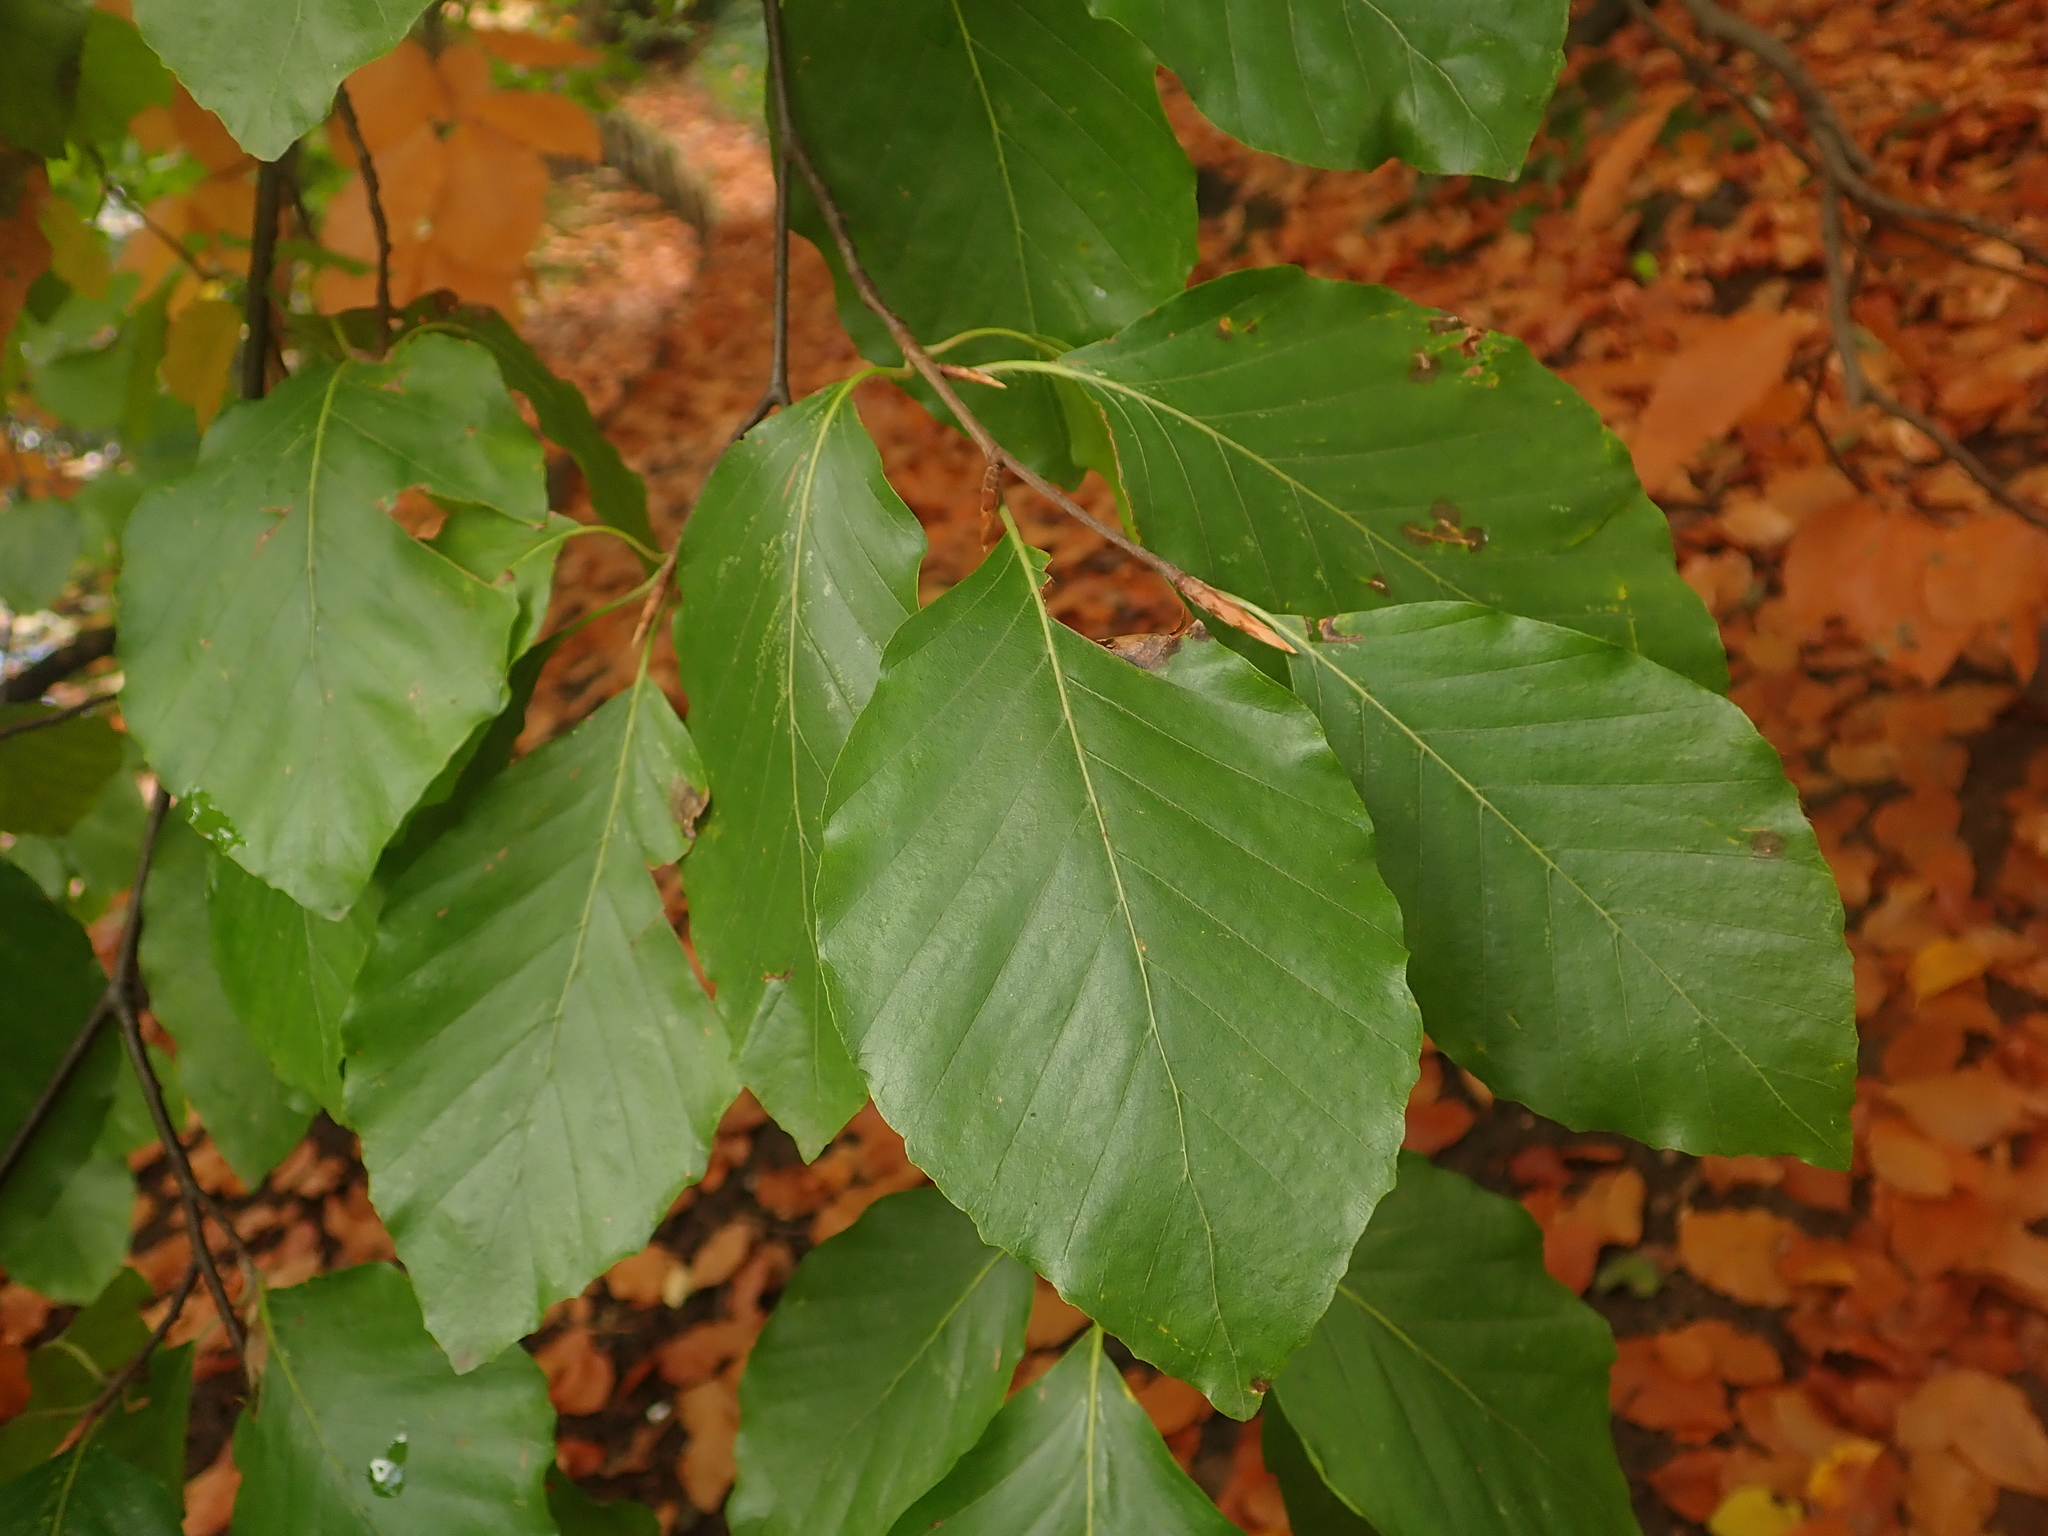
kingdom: Plantae
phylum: Tracheophyta
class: Magnoliopsida
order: Fagales
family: Fagaceae
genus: Fagus
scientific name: Fagus sylvatica
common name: Beech
